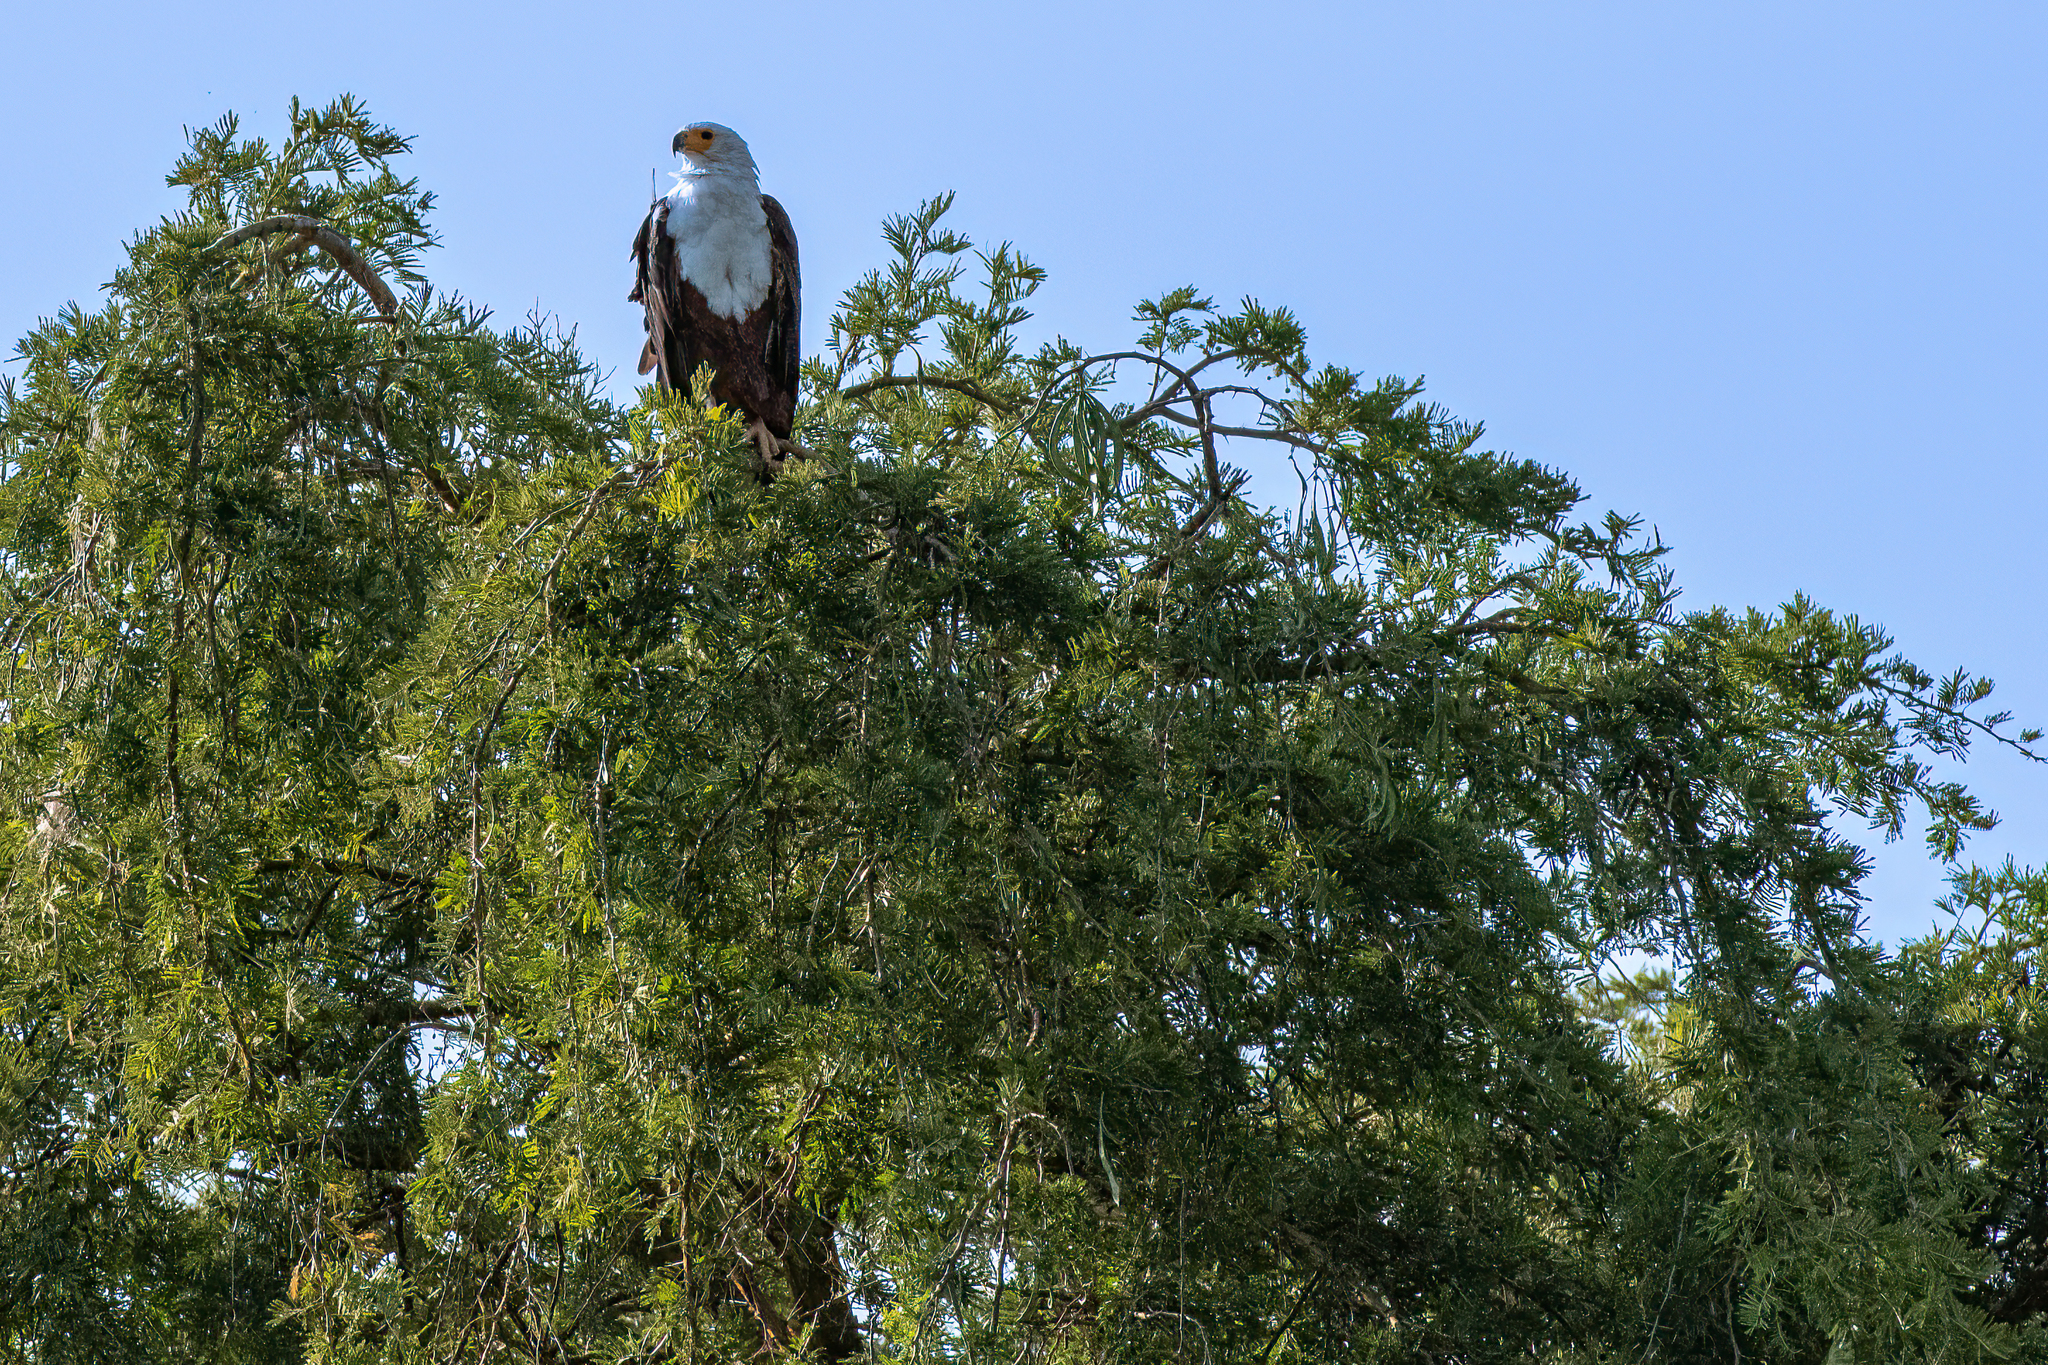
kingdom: Animalia
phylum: Chordata
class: Aves
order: Accipitriformes
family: Accipitridae
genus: Haliaeetus
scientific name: Haliaeetus vocifer
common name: African fish eagle
